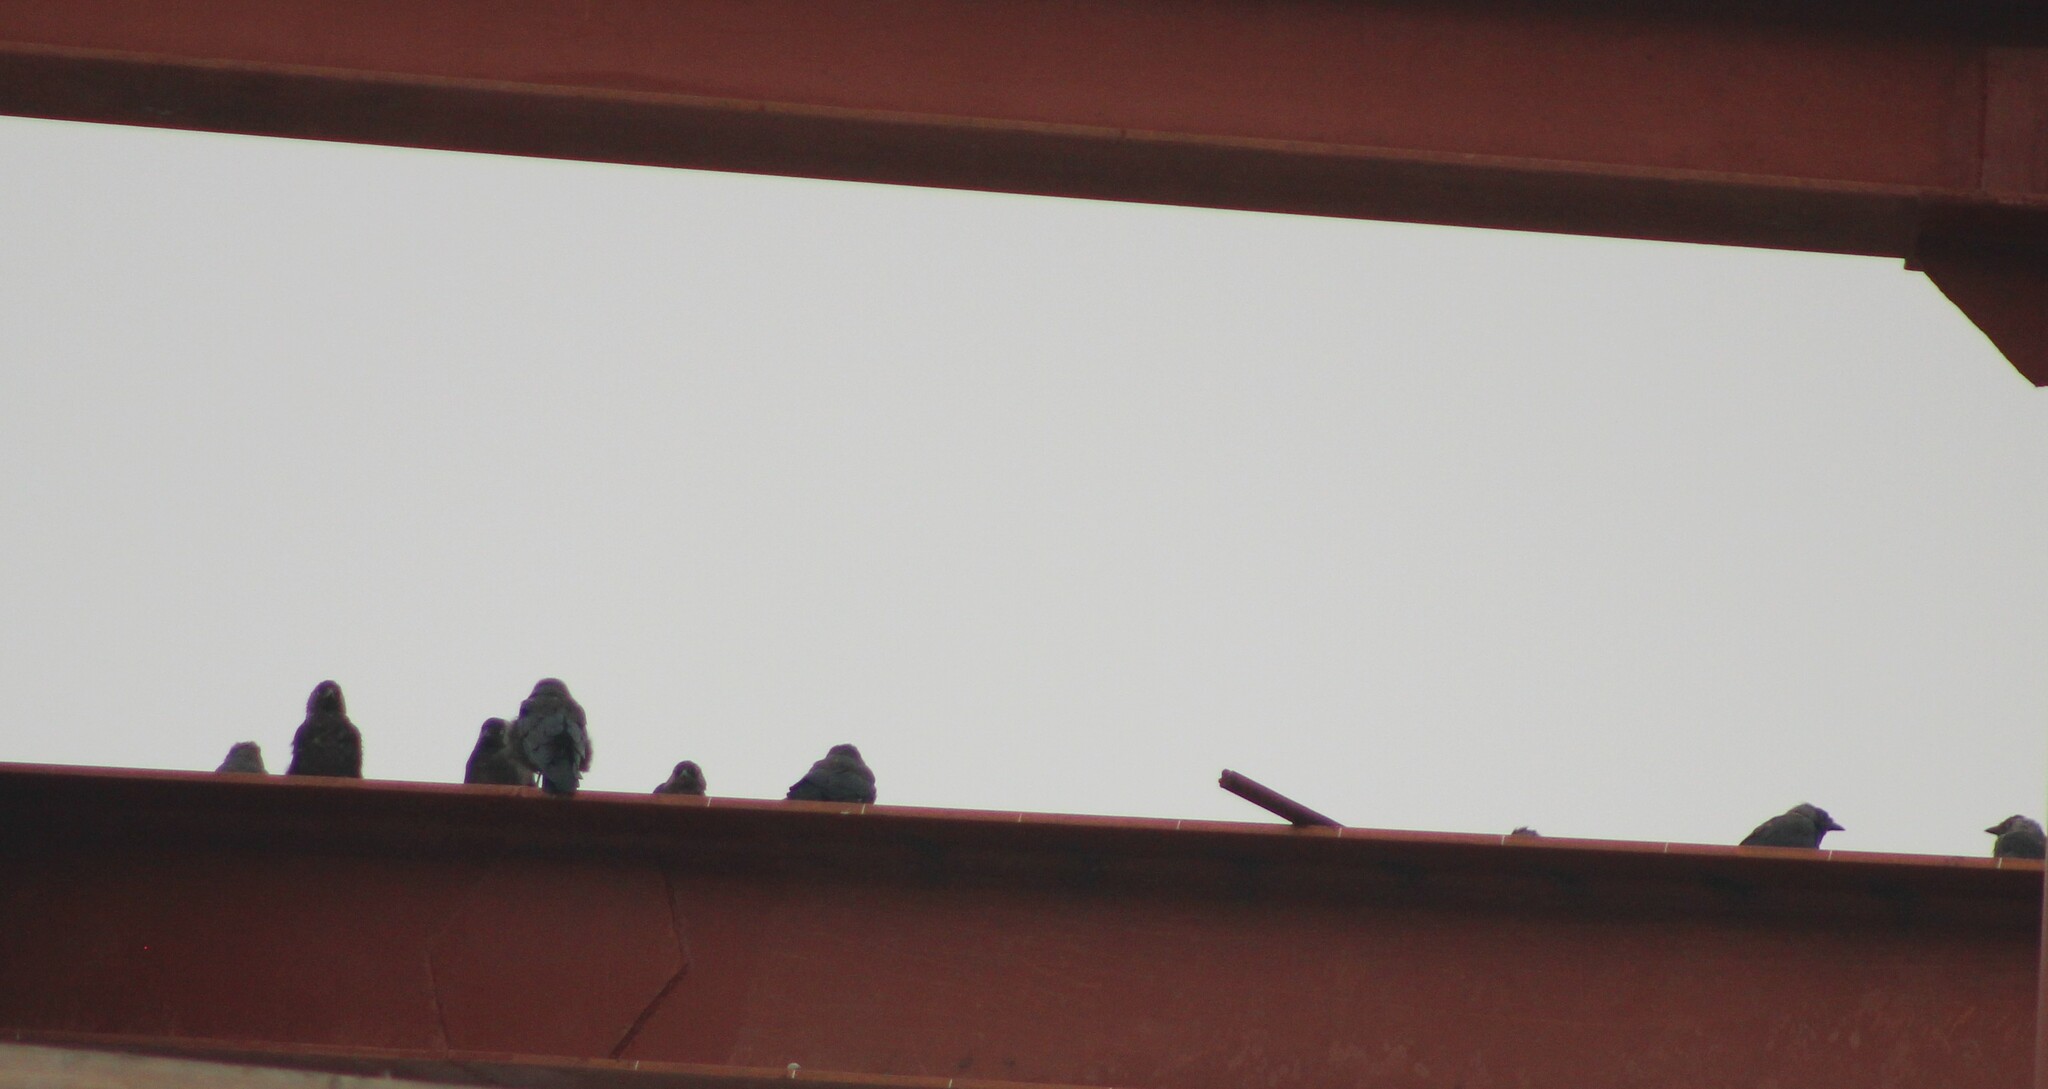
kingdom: Animalia
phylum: Chordata
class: Aves
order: Passeriformes
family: Corvidae
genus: Coloeus
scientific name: Coloeus monedula
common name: Western jackdaw
